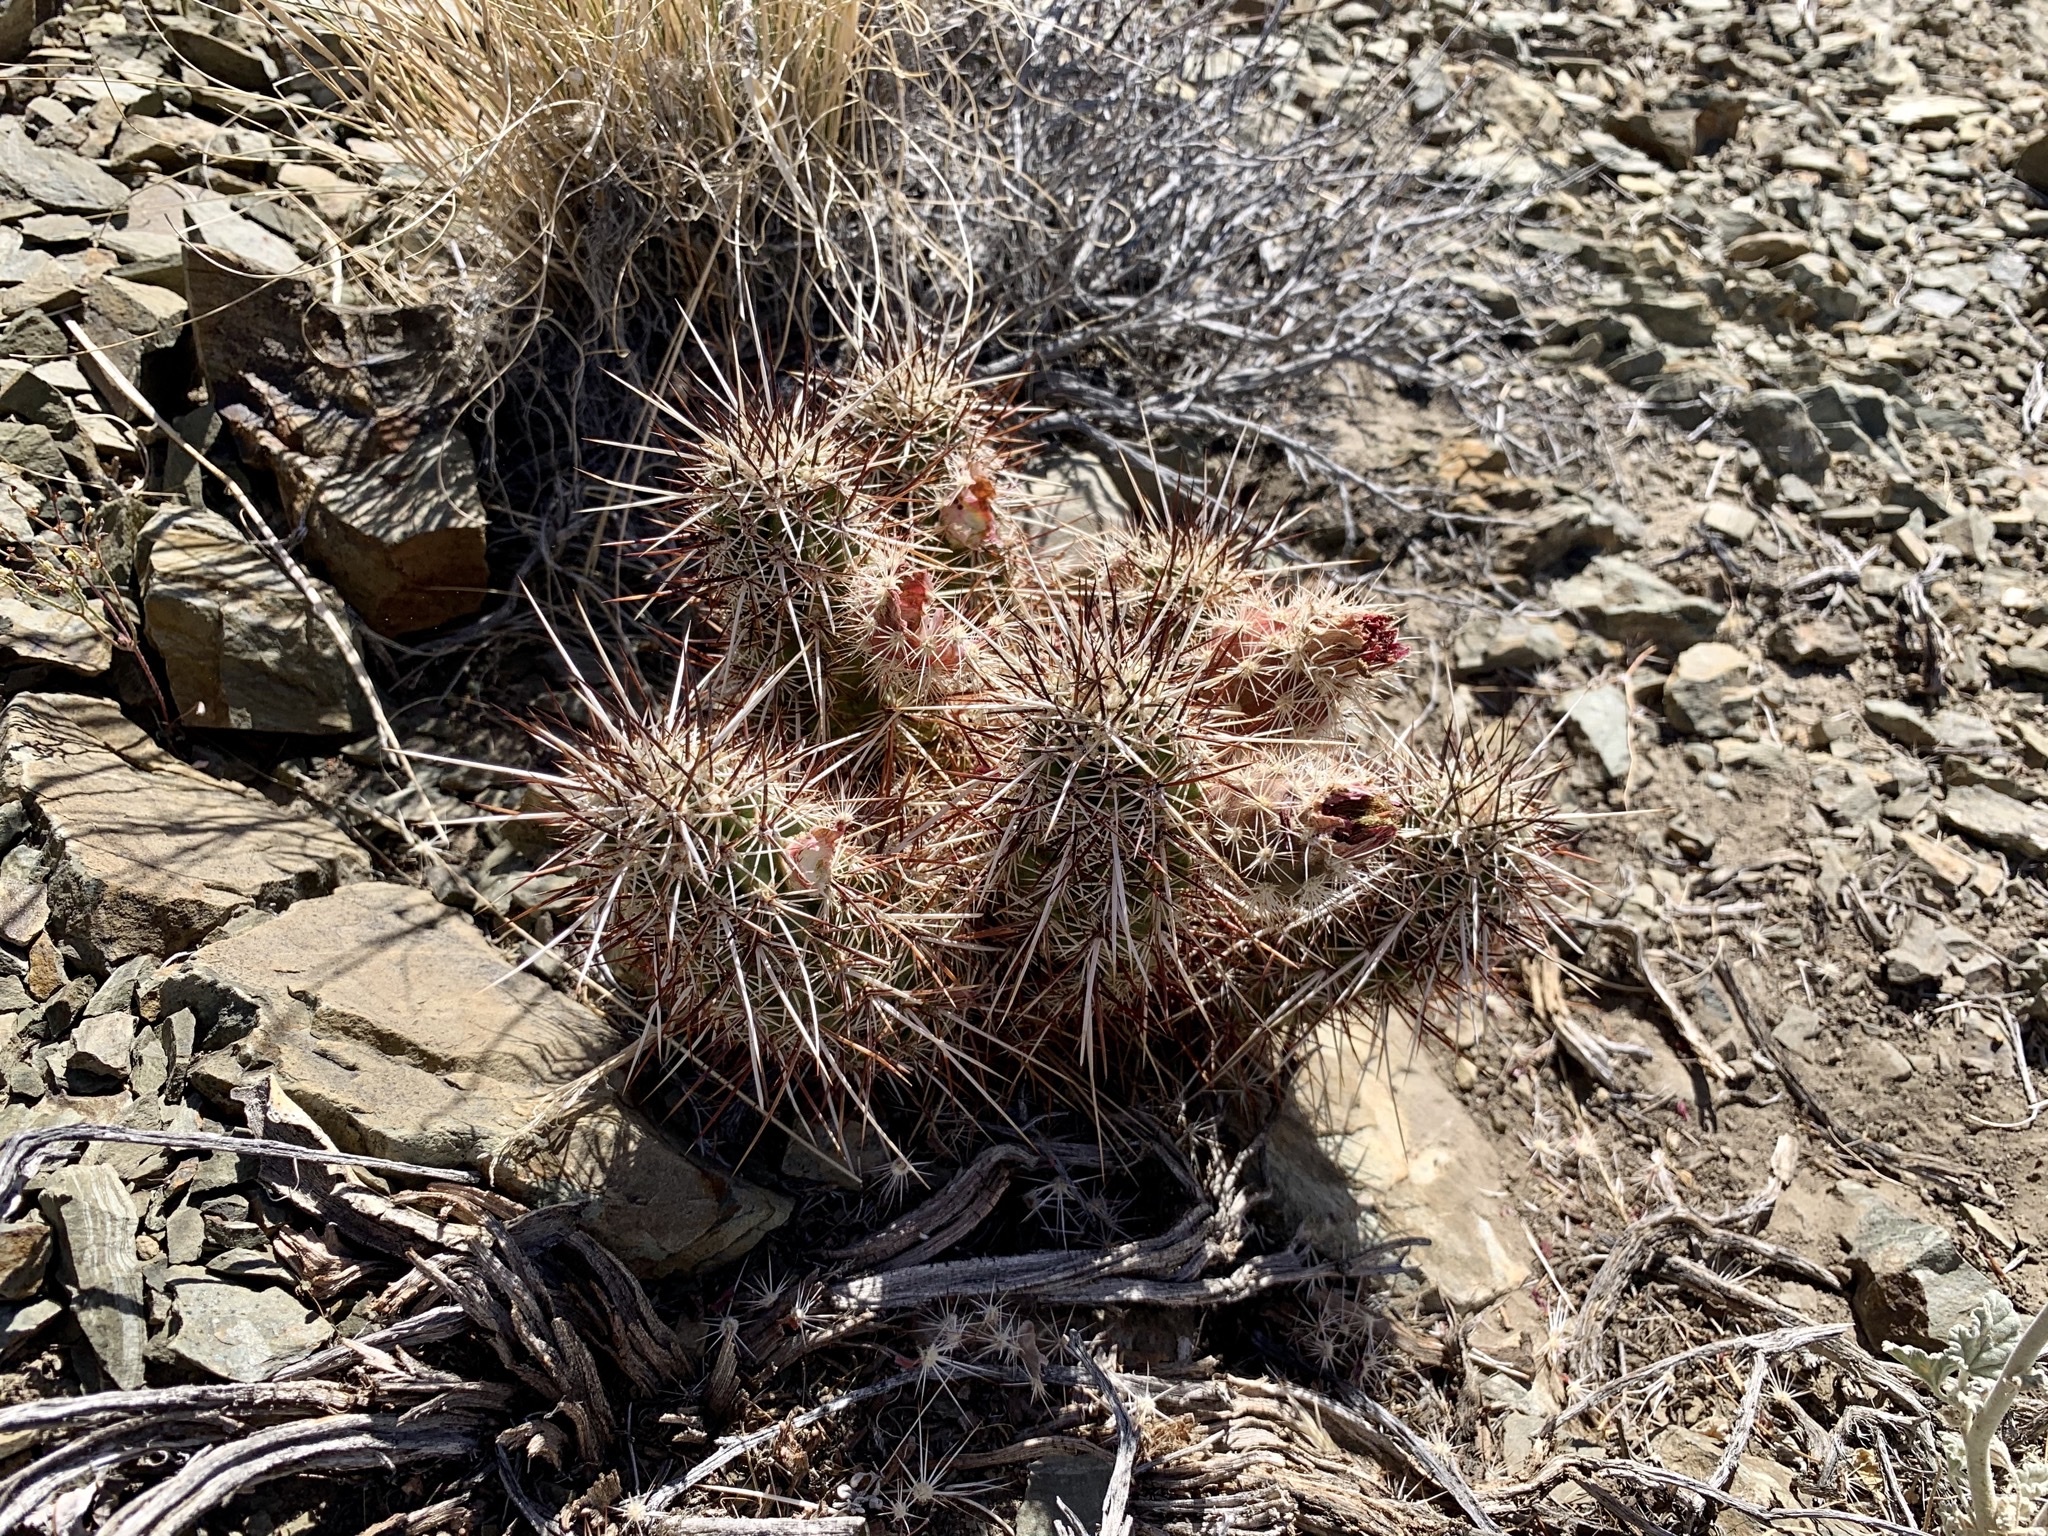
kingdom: Plantae
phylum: Tracheophyta
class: Magnoliopsida
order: Caryophyllales
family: Cactaceae
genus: Echinocereus
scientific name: Echinocereus engelmannii
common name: Engelmann's hedgehog cactus
